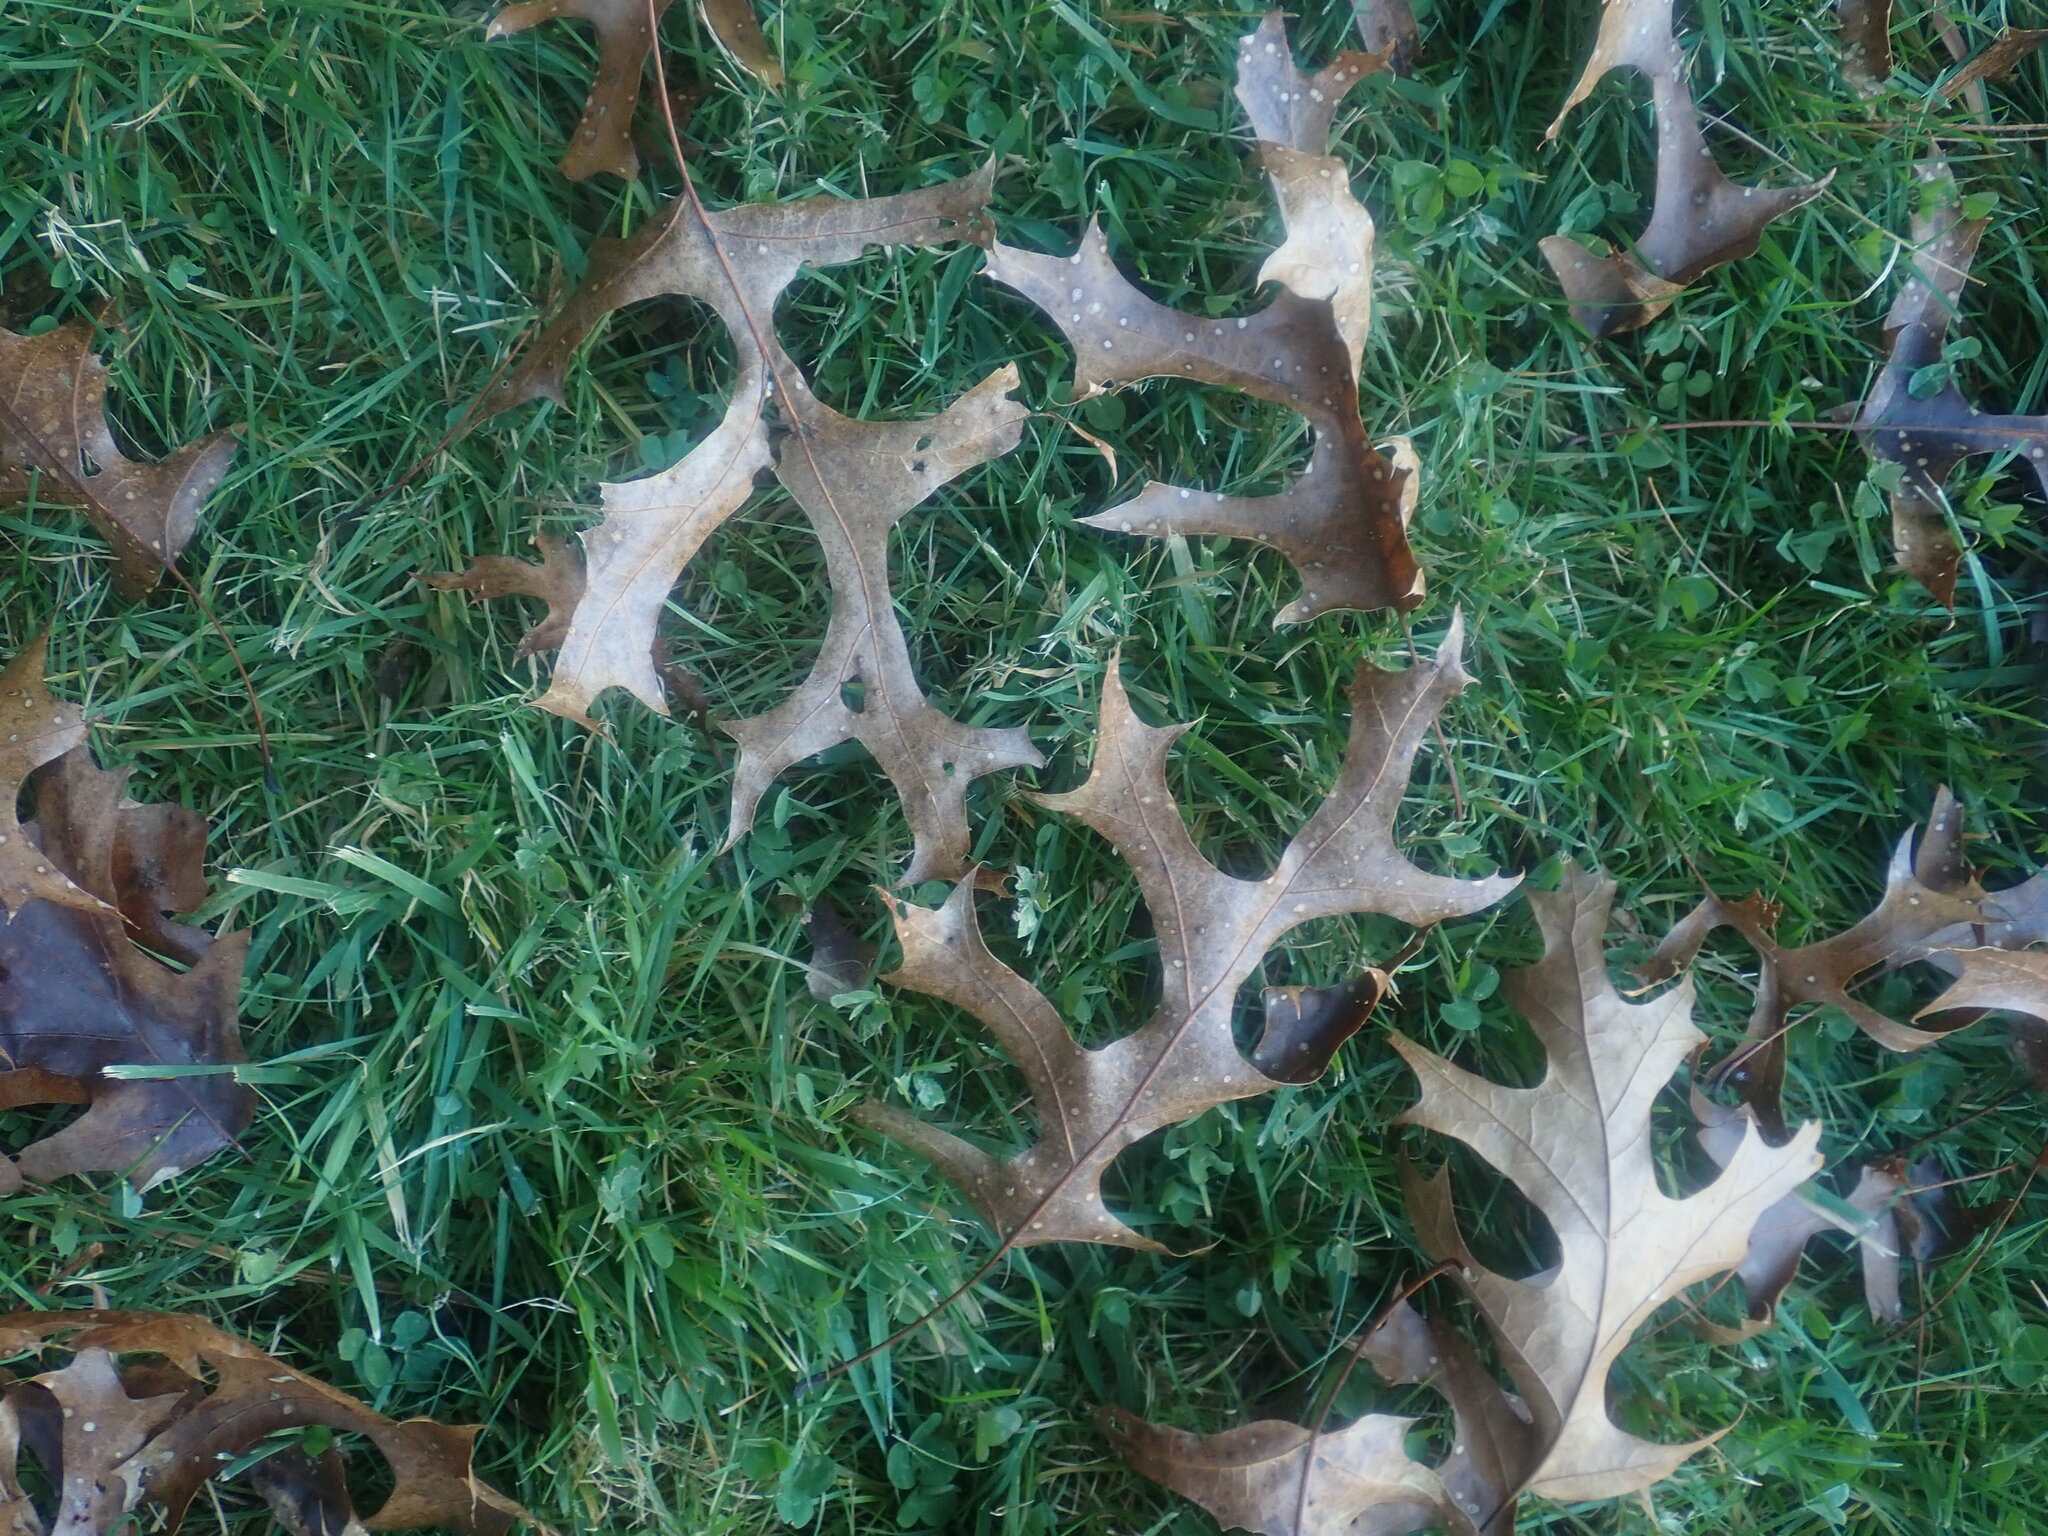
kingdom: Plantae
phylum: Tracheophyta
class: Magnoliopsida
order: Fagales
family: Fagaceae
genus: Quercus
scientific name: Quercus coccinea
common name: Scarlet oak
